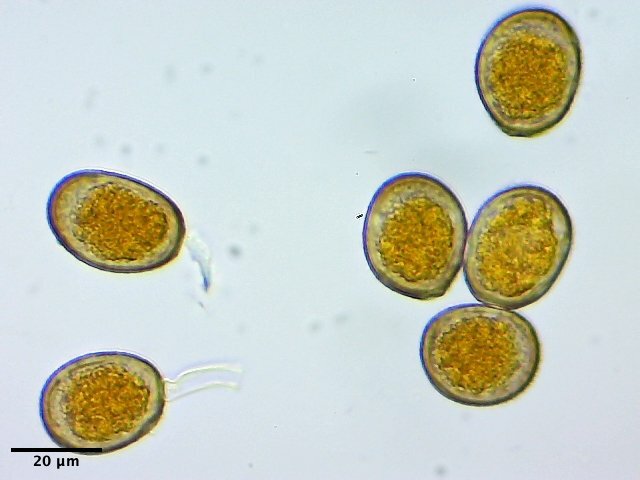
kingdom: Fungi
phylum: Basidiomycota
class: Pucciniomycetes
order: Pucciniales
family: Pucciniaceae
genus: Uromyces
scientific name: Uromyces rebeccae
